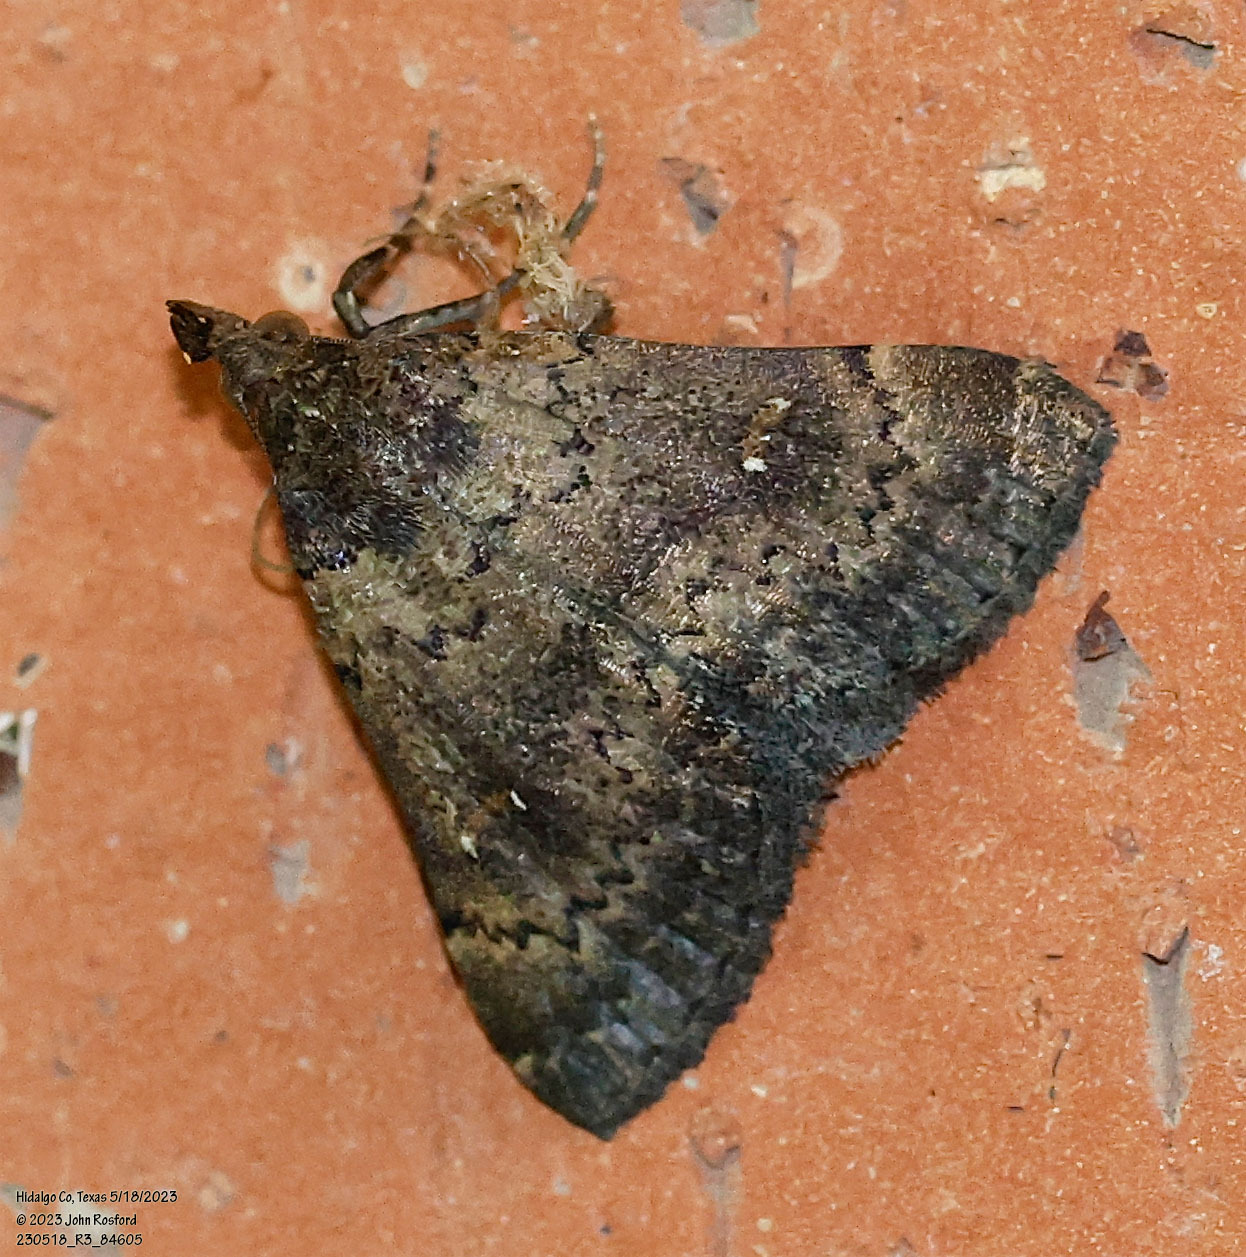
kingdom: Animalia
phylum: Arthropoda
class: Insecta
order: Lepidoptera
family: Erebidae
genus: Hypenula
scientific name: Hypenula cacuminalis
